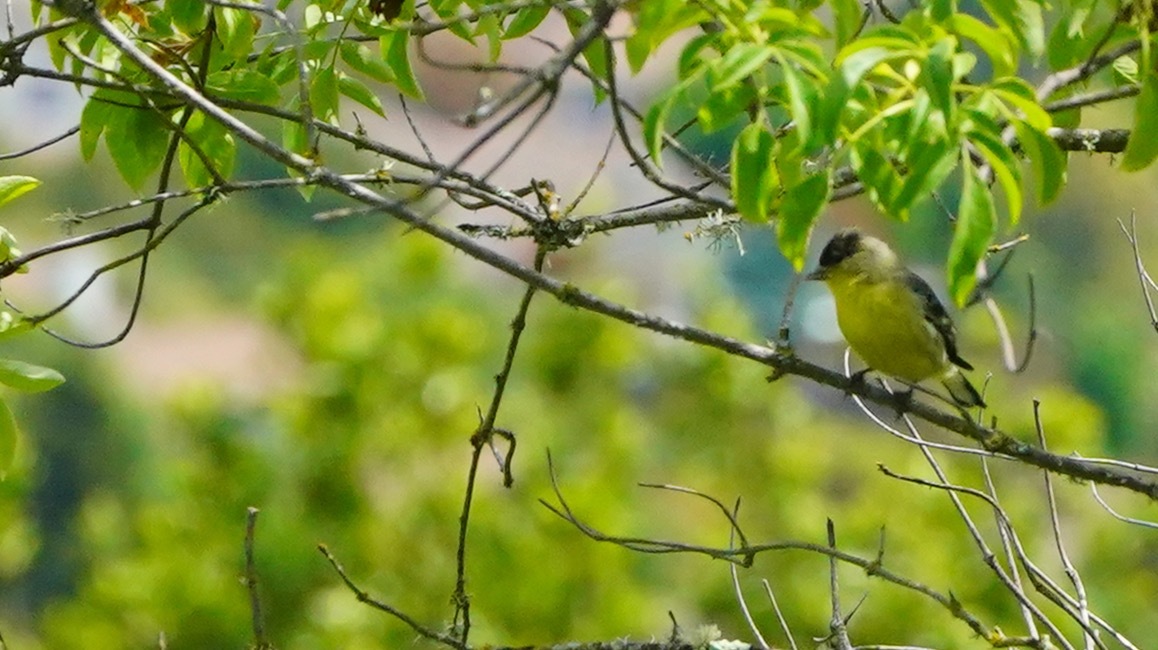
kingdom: Animalia
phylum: Chordata
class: Aves
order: Passeriformes
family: Fringillidae
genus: Spinus
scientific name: Spinus psaltria
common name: Lesser goldfinch
